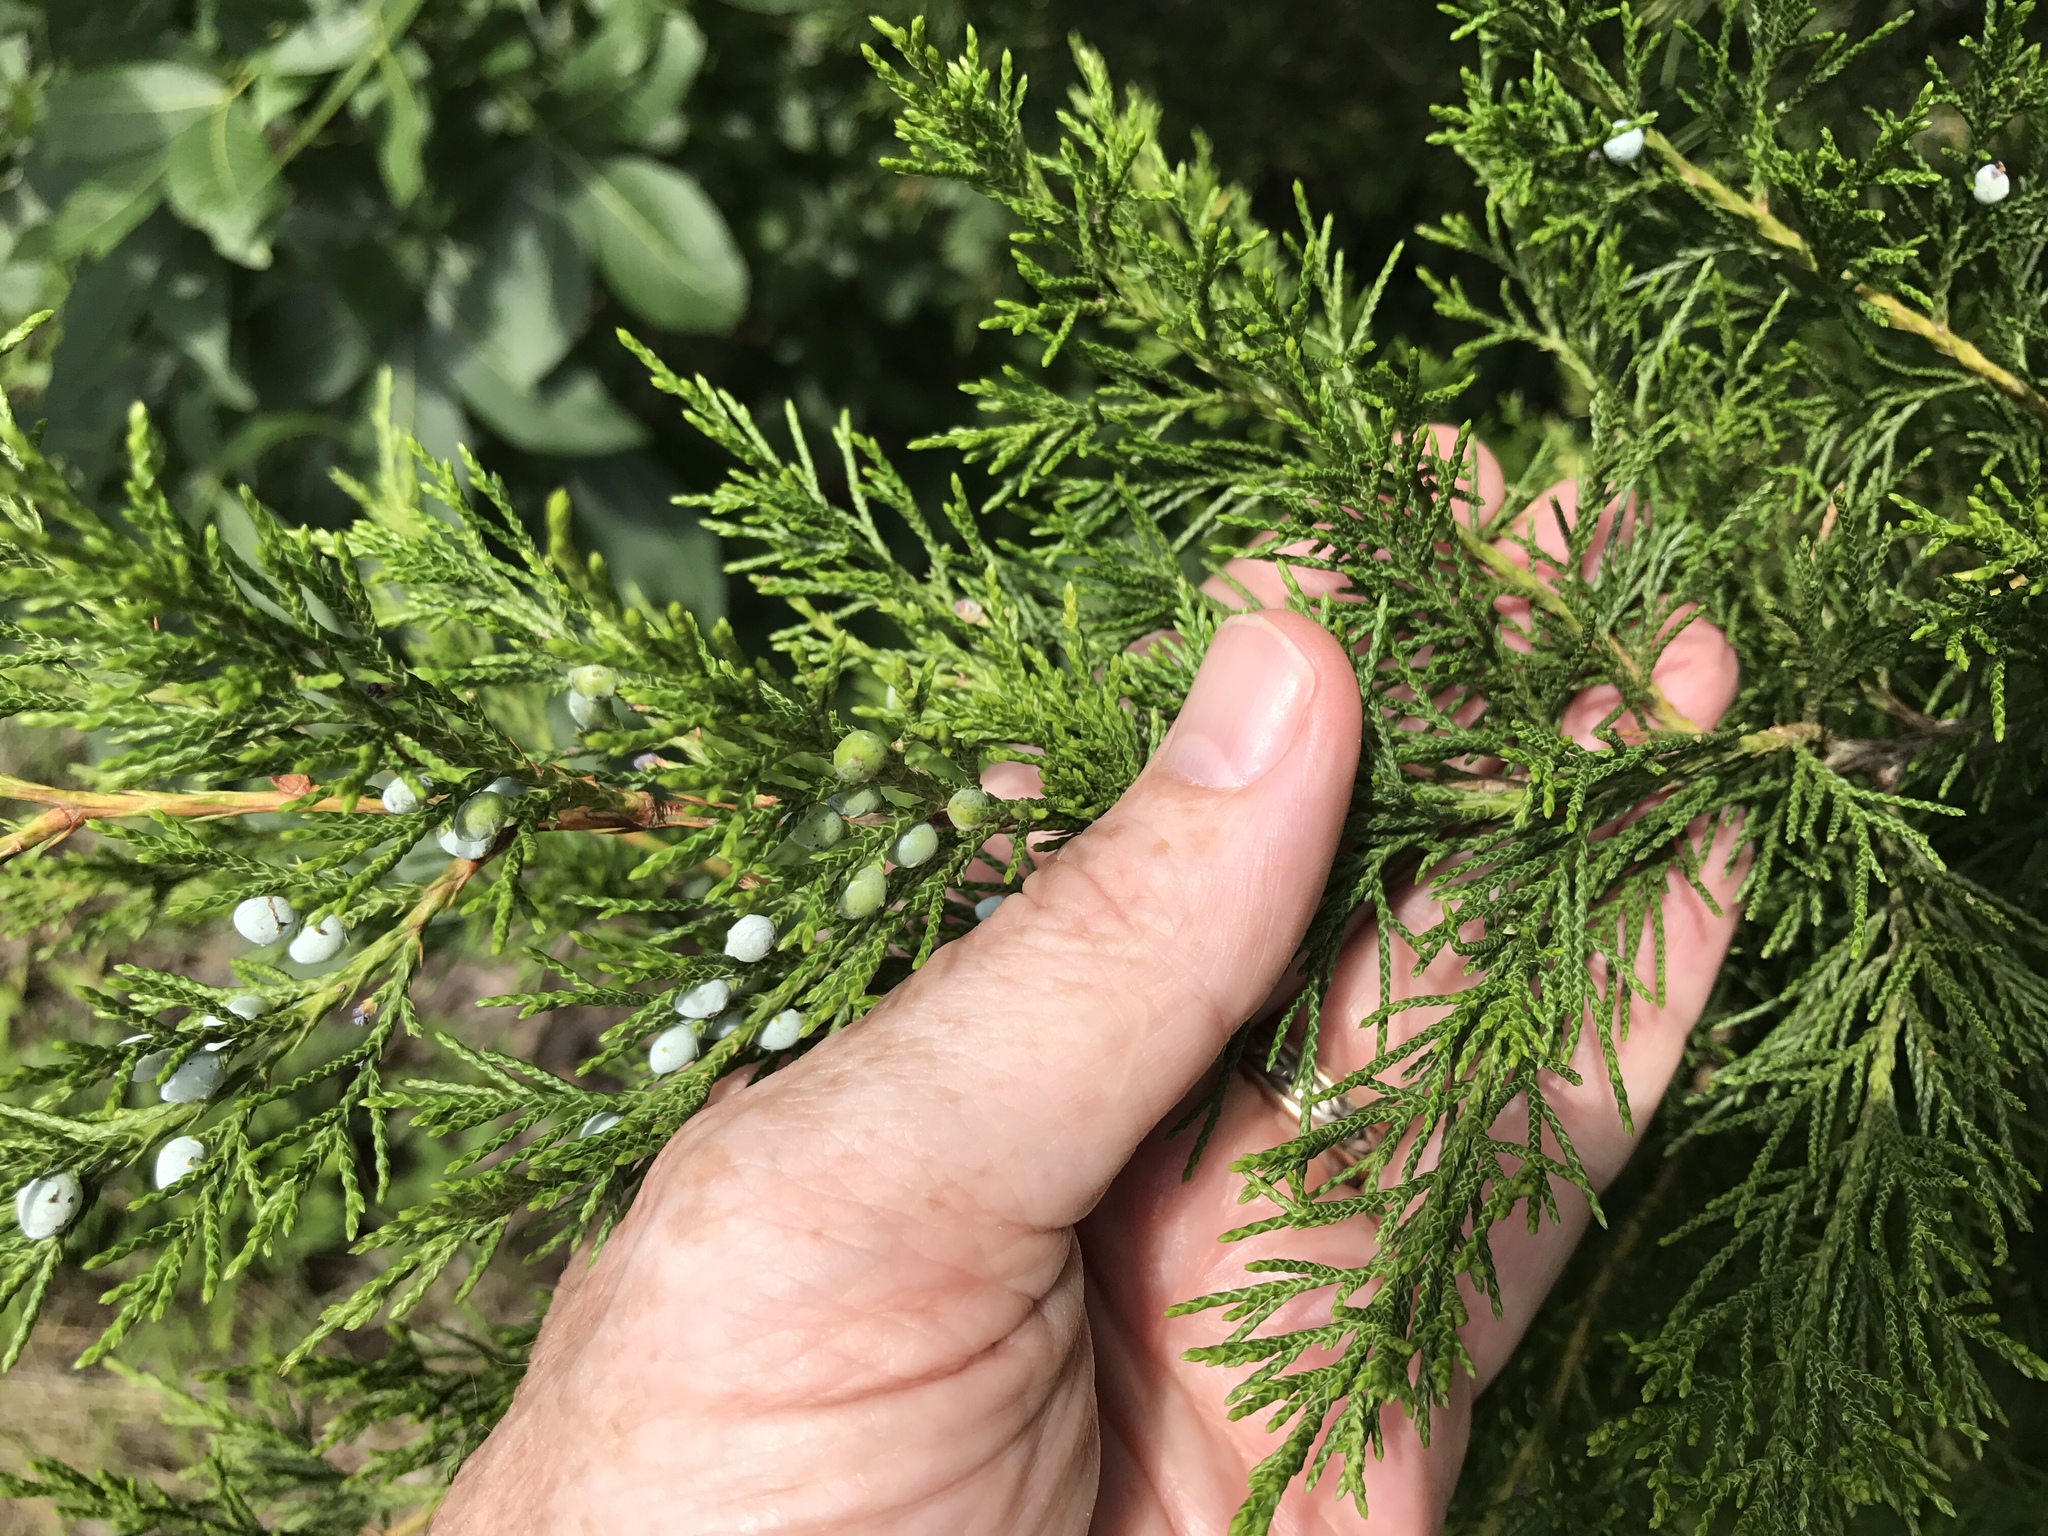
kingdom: Plantae
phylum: Tracheophyta
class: Pinopsida
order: Pinales
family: Cupressaceae
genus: Juniperus
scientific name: Juniperus virginiana
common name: Red juniper
